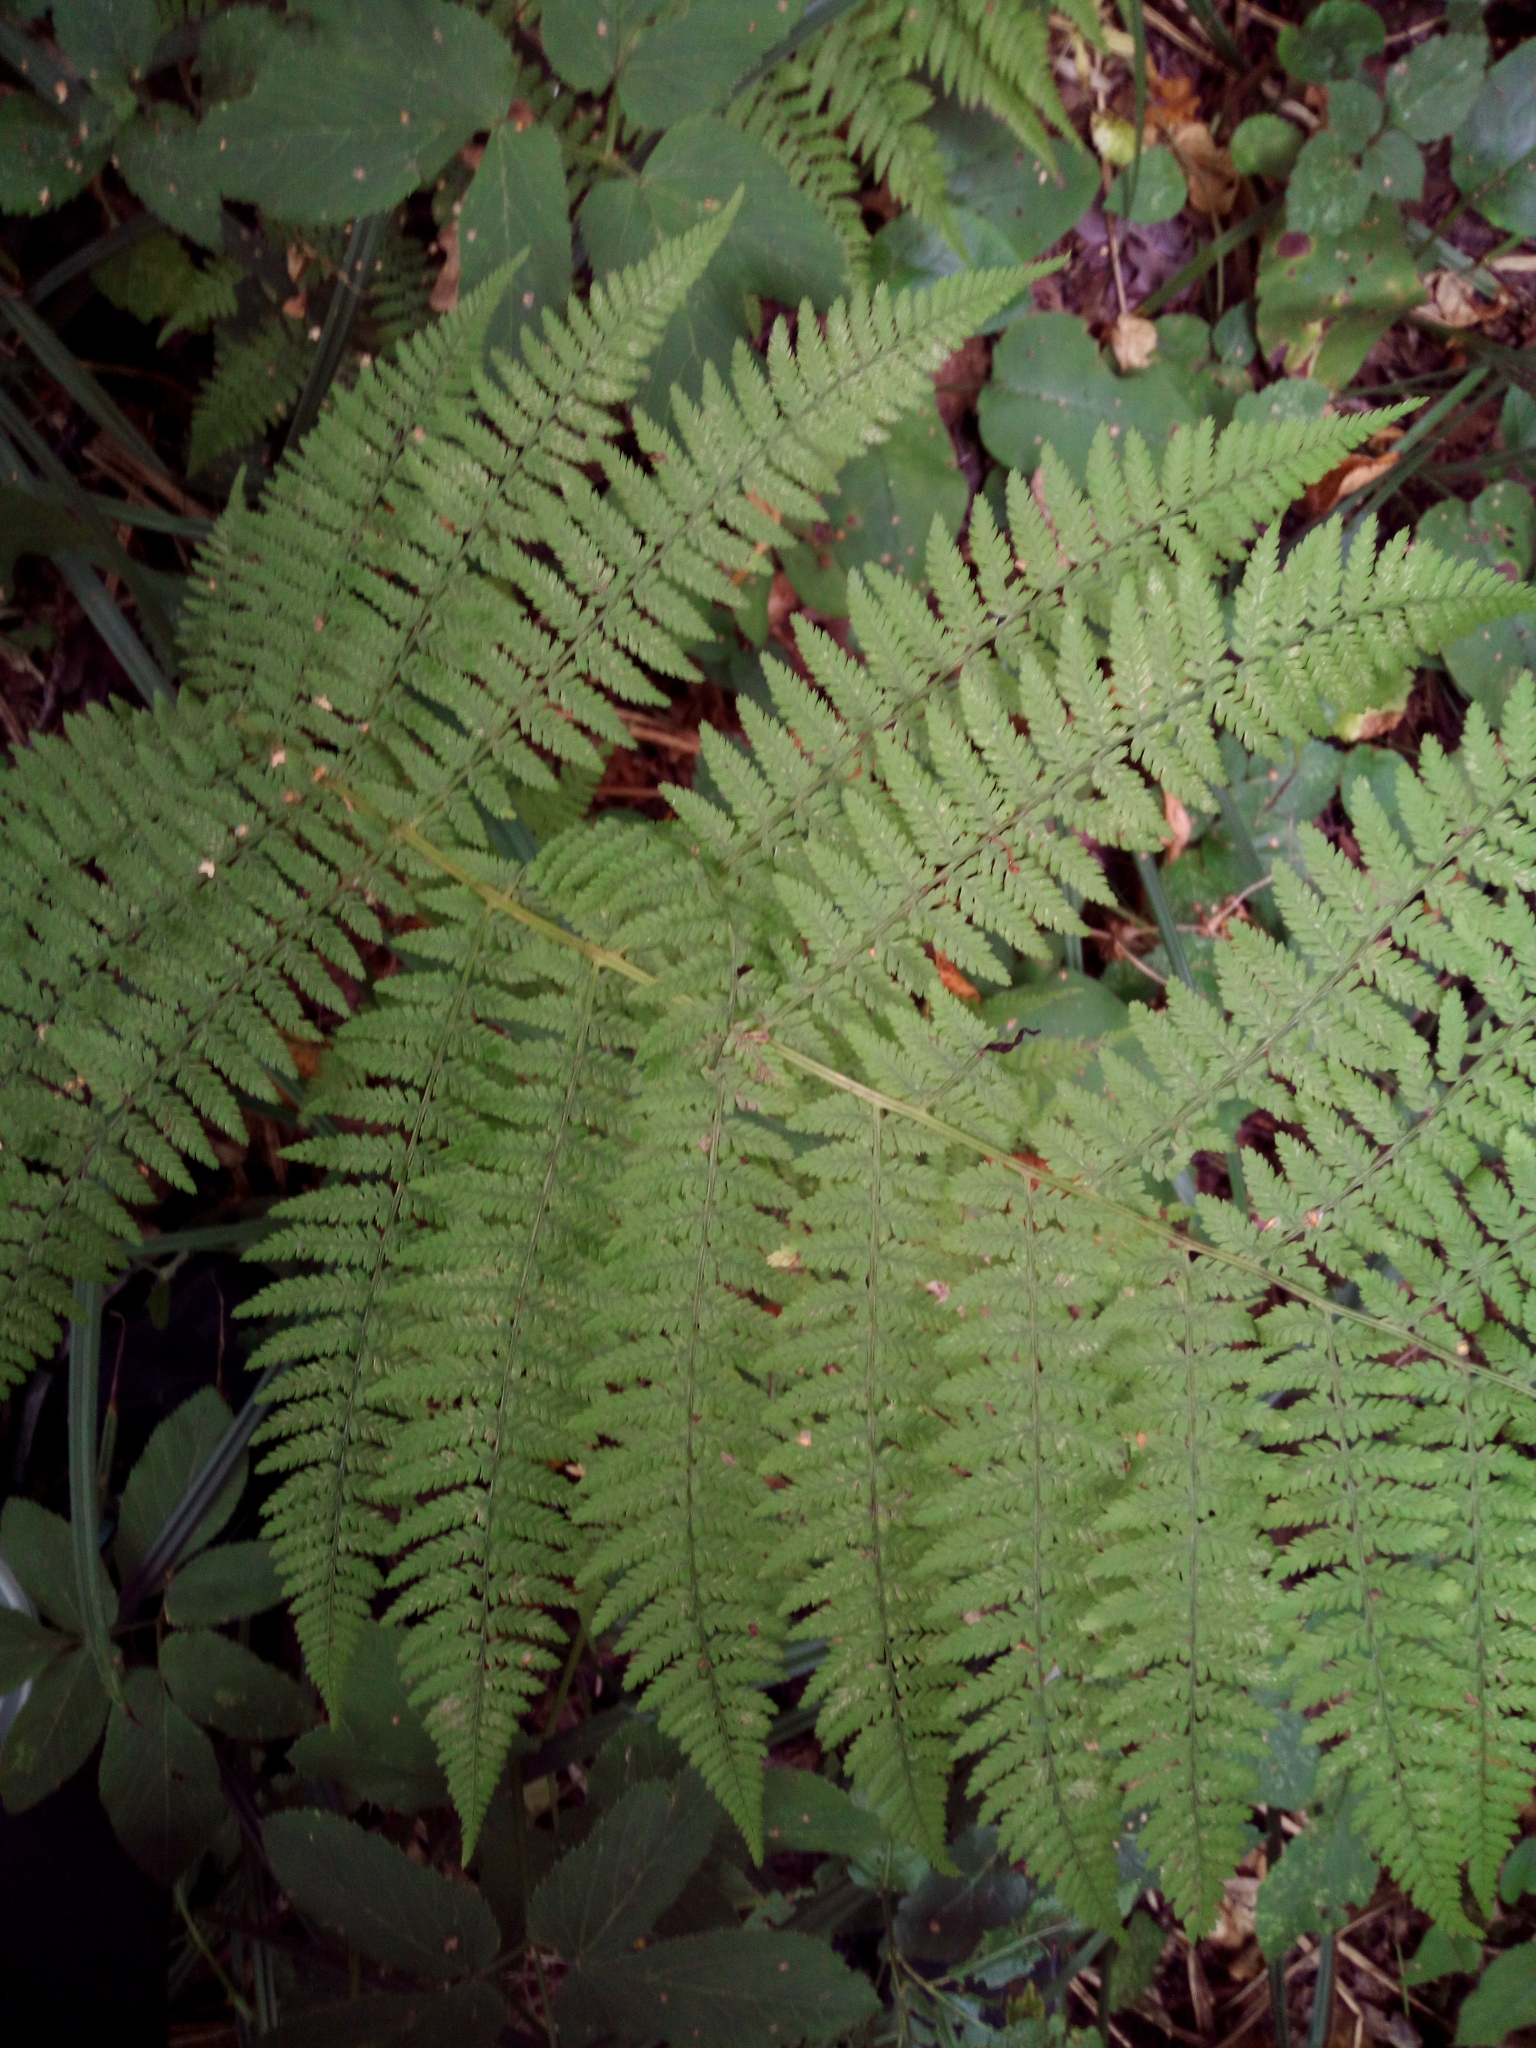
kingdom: Plantae
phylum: Tracheophyta
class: Polypodiopsida
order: Polypodiales
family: Athyriaceae
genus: Athyrium
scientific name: Athyrium filix-femina
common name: Lady fern
